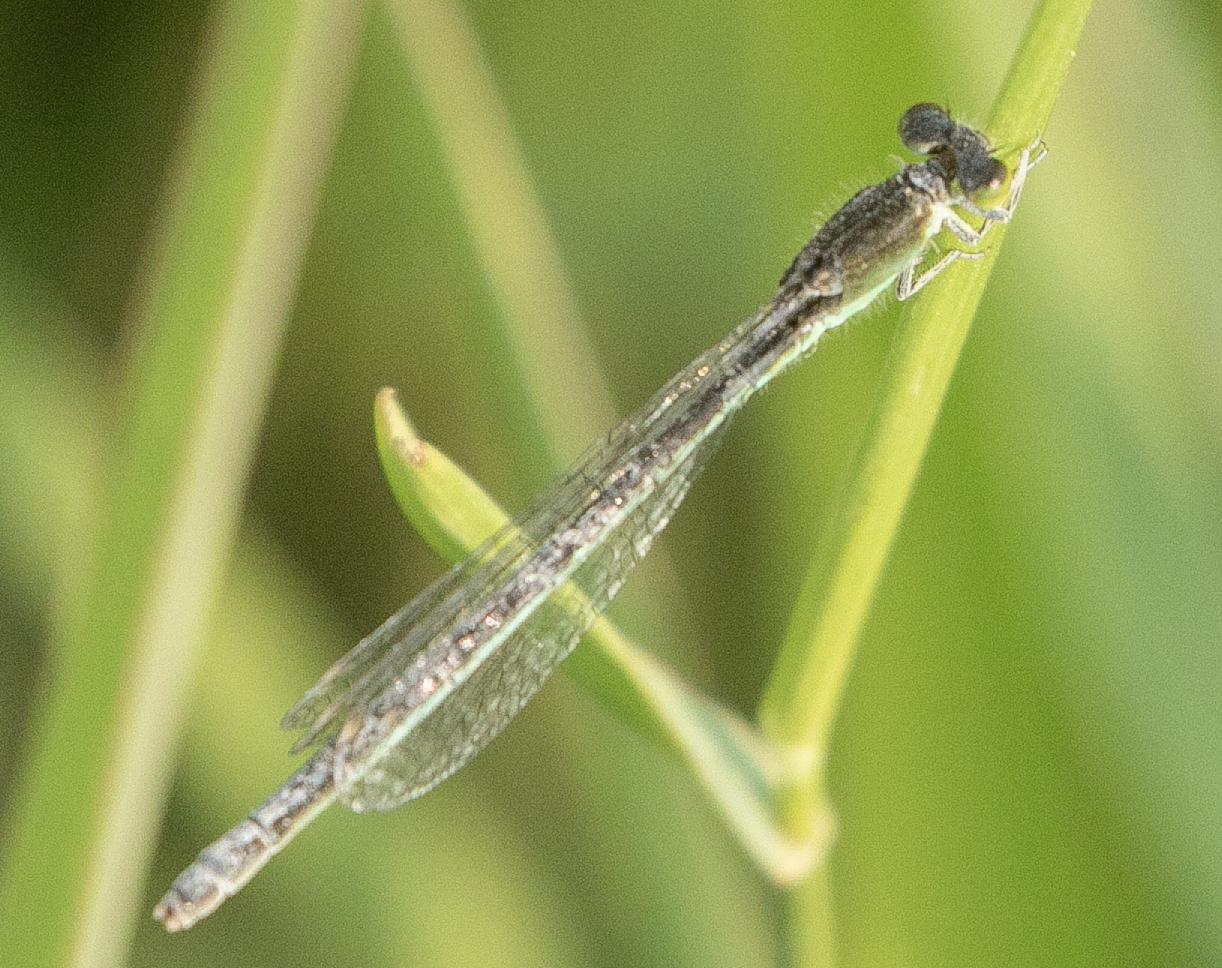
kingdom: Animalia
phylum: Arthropoda
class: Insecta
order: Odonata
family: Coenagrionidae
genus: Ischnura
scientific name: Ischnura pumilio
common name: Scarce blue-tailed damselfly
